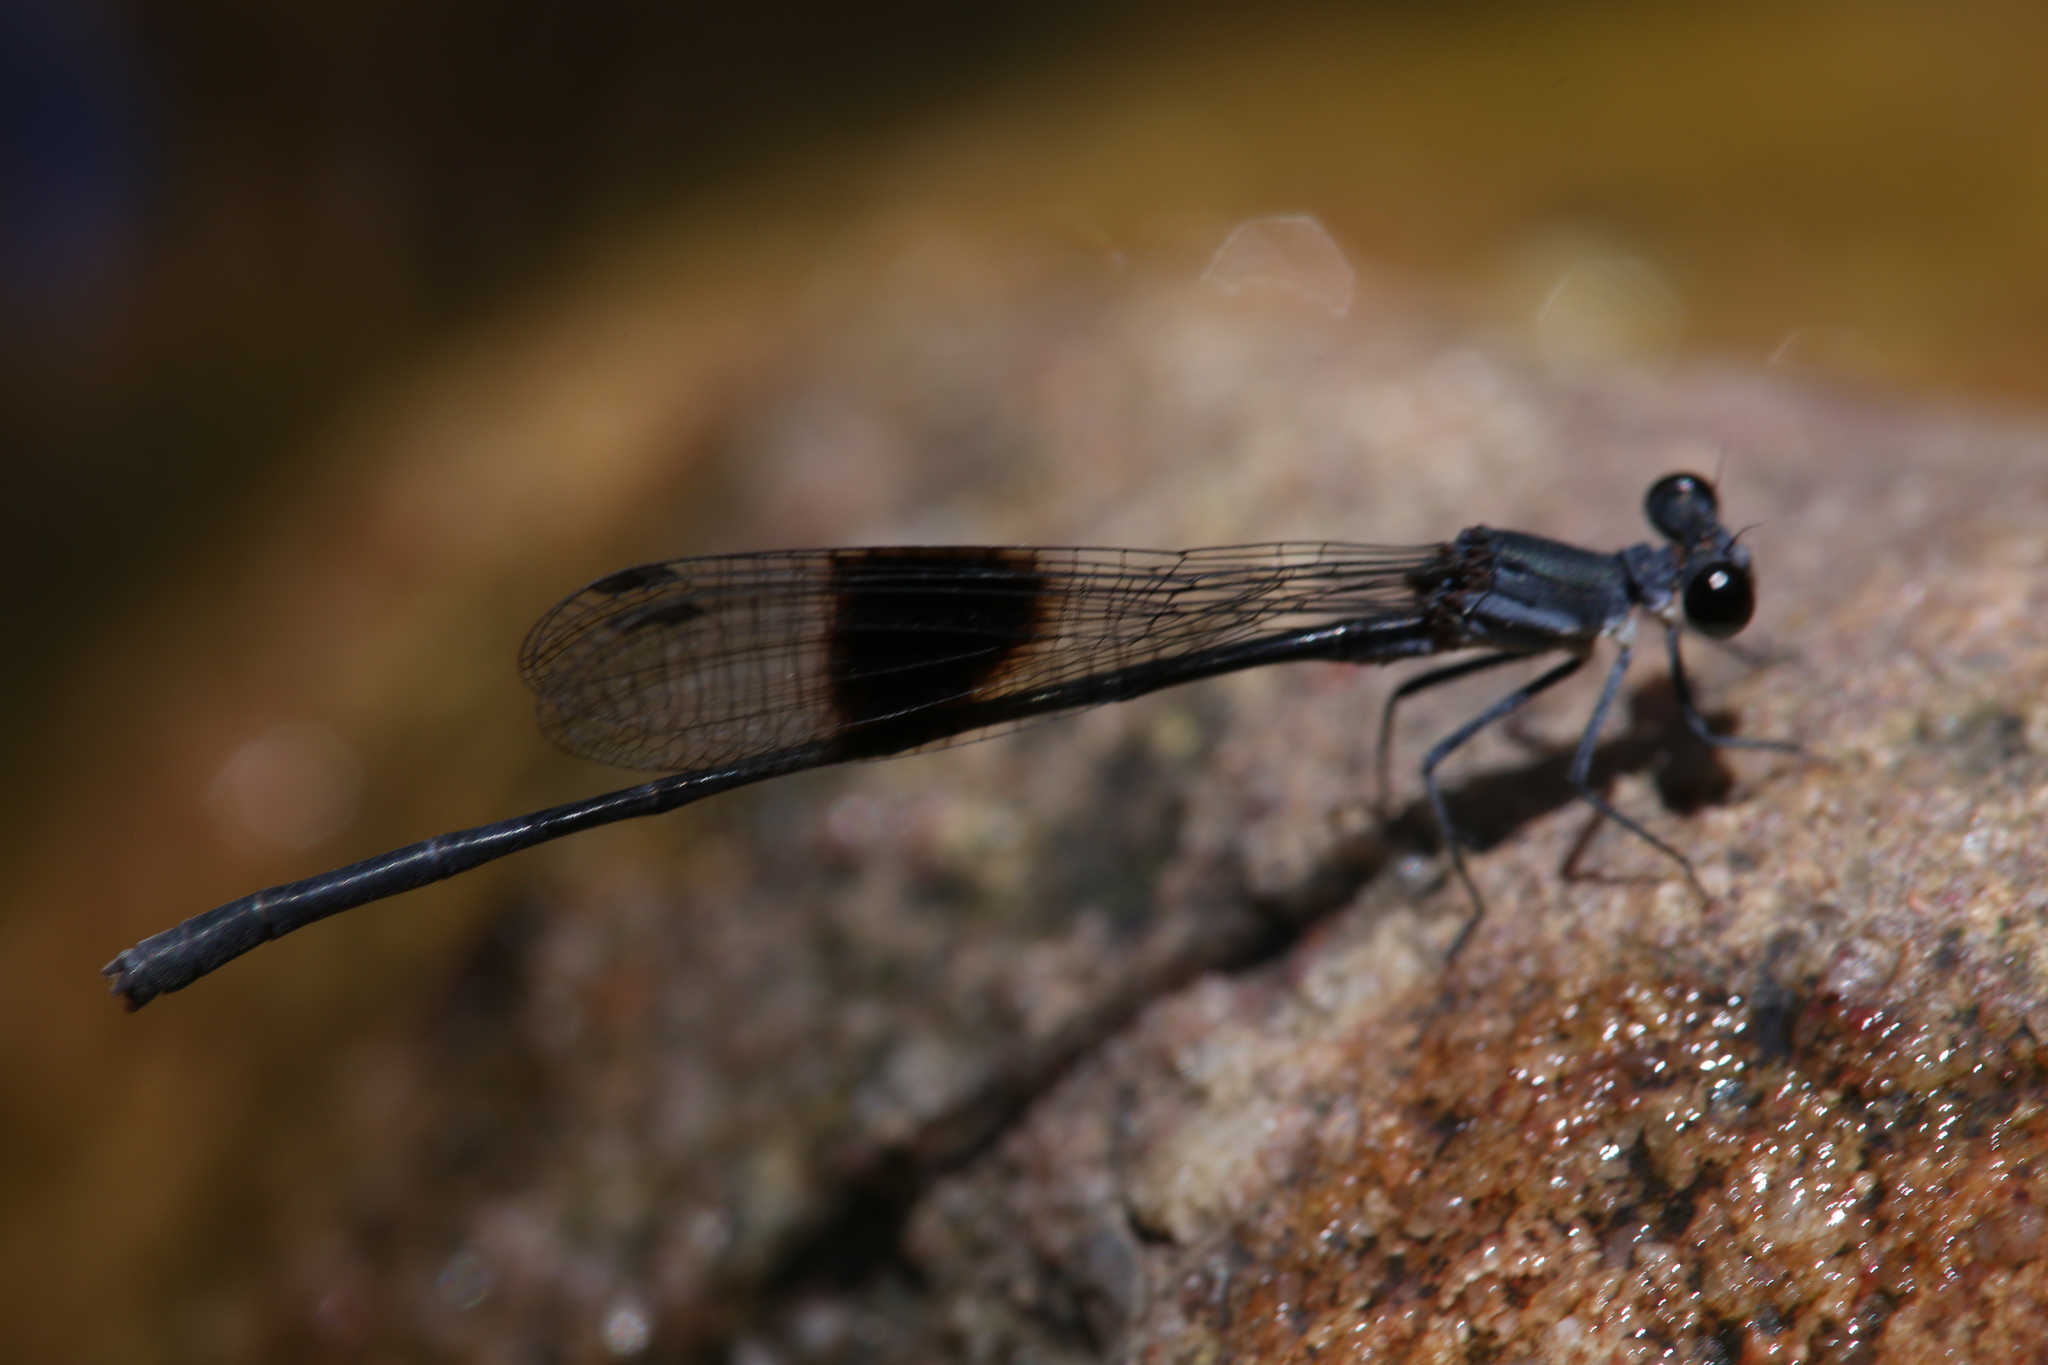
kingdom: Animalia
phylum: Arthropoda
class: Insecta
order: Odonata
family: Platycnemididae
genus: Nososticta
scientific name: Nososticta kalumburu
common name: Spot-winged threadtail
